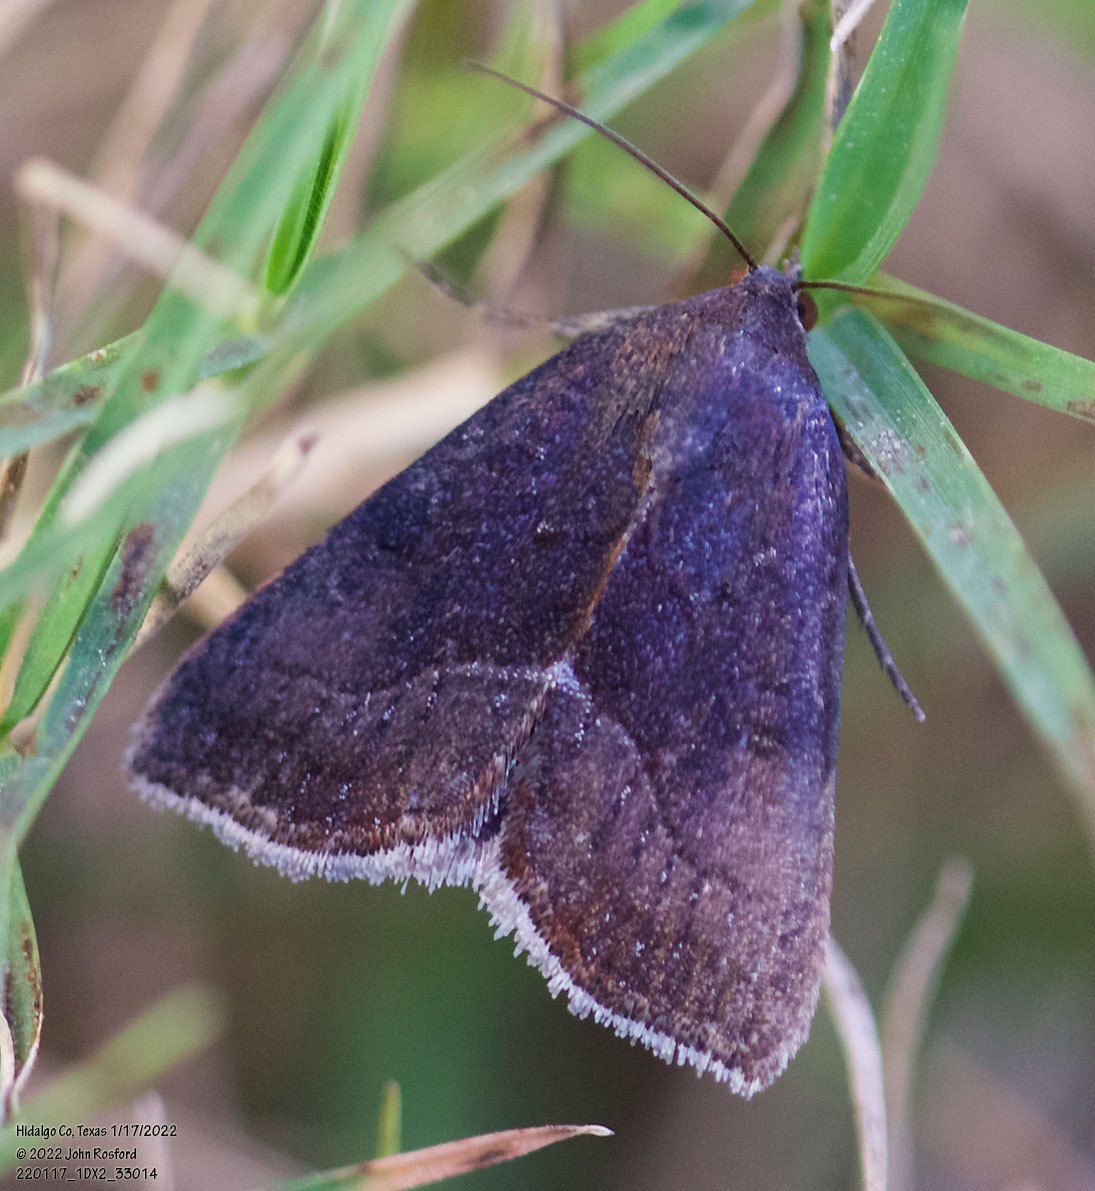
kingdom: Animalia
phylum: Arthropoda
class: Insecta
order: Lepidoptera
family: Noctuidae
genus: Galgula
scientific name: Galgula partita
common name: Wedgeling
